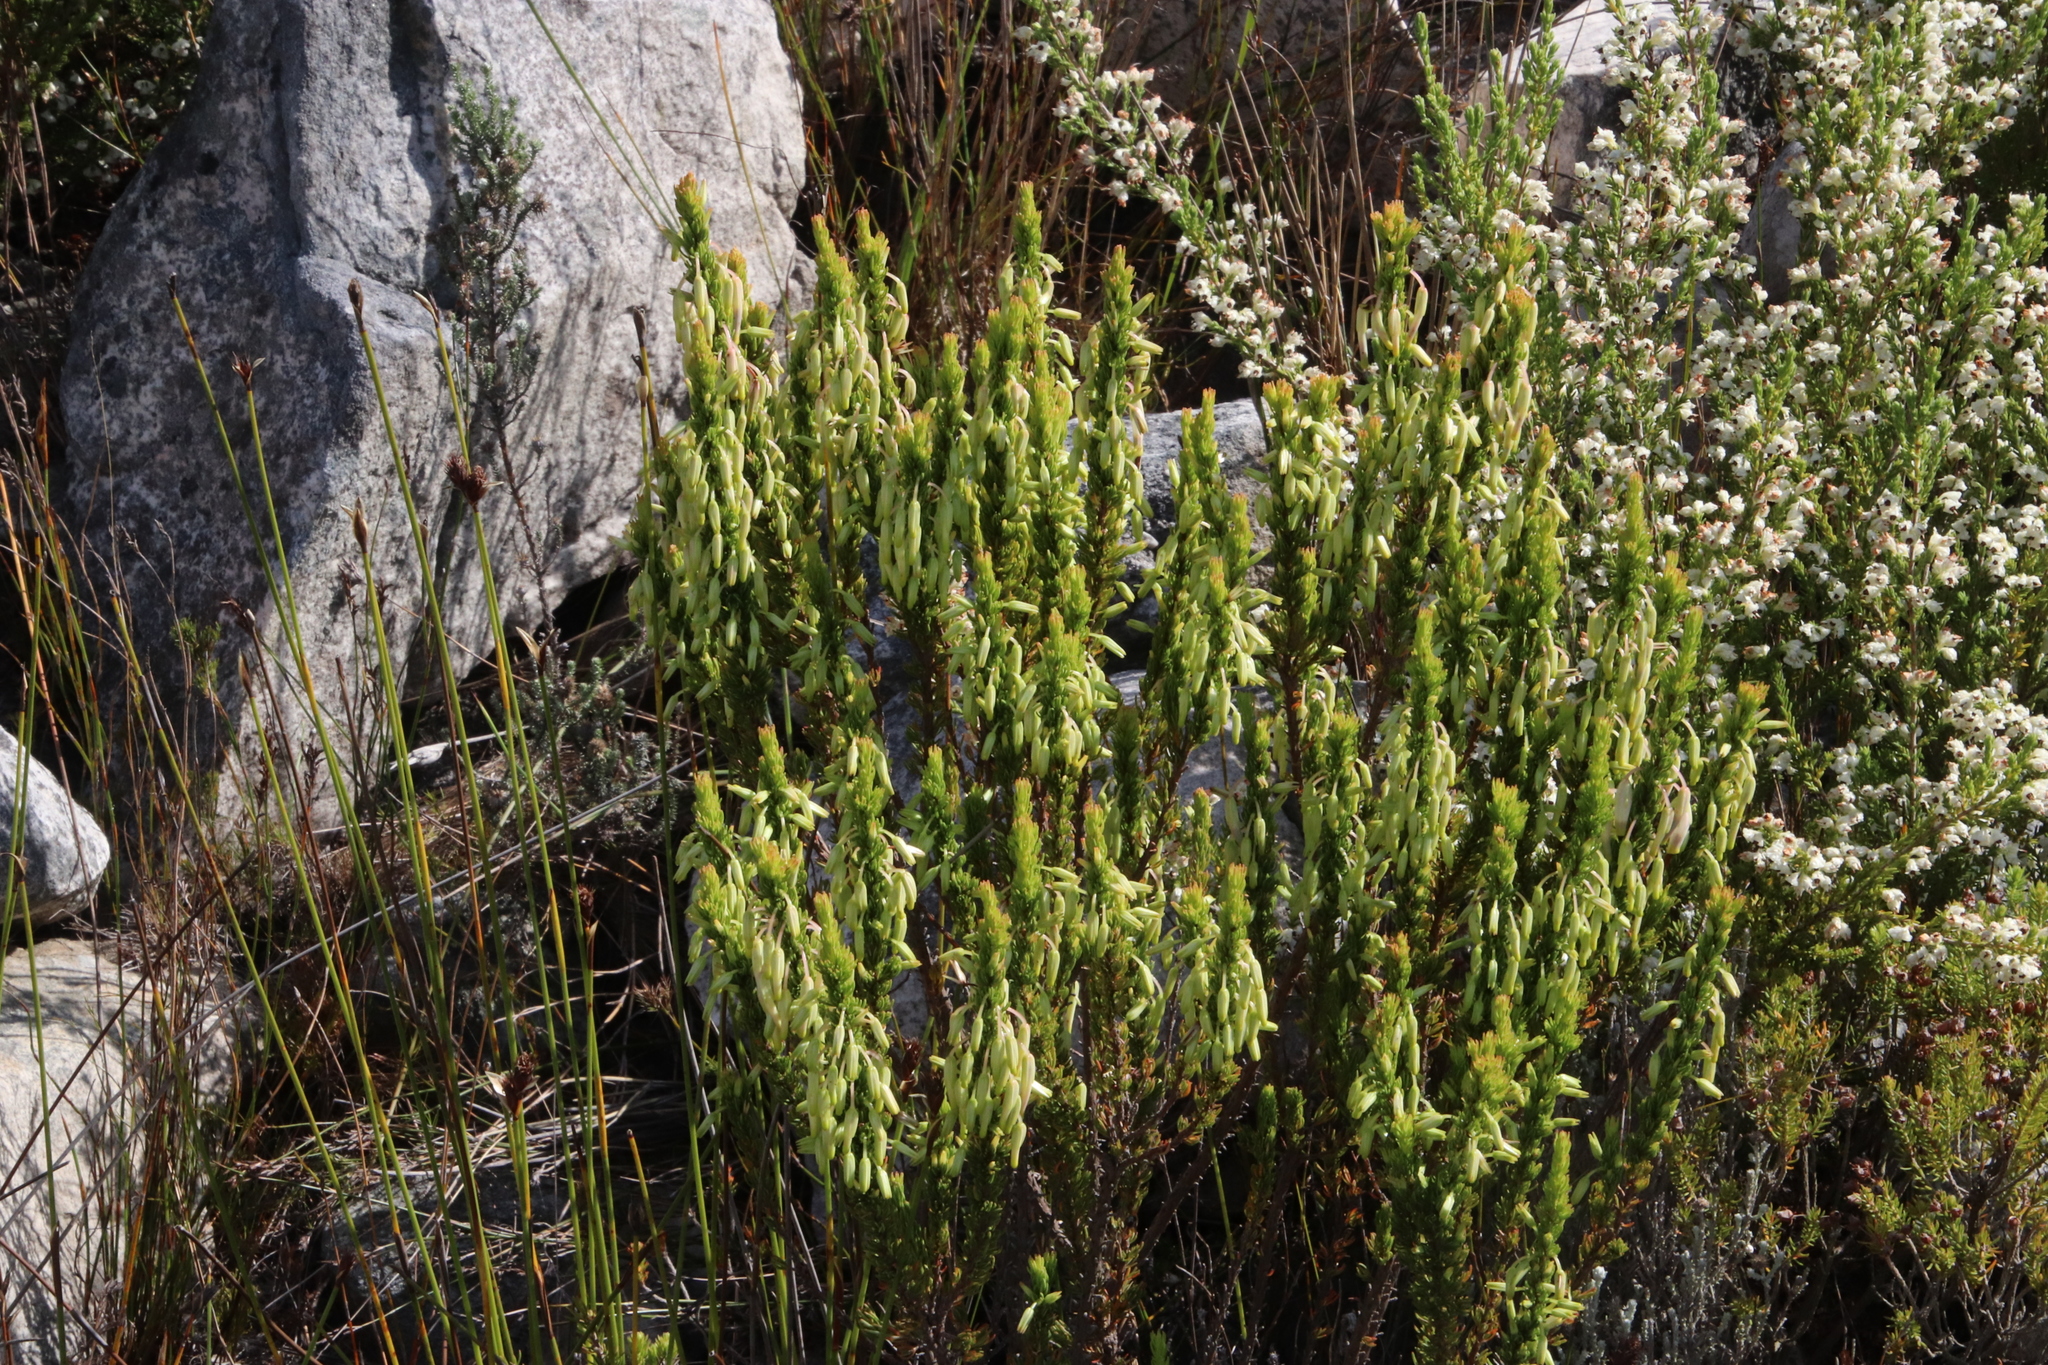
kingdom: Plantae
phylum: Tracheophyta
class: Magnoliopsida
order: Ericales
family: Ericaceae
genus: Erica
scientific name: Erica plukenetii
